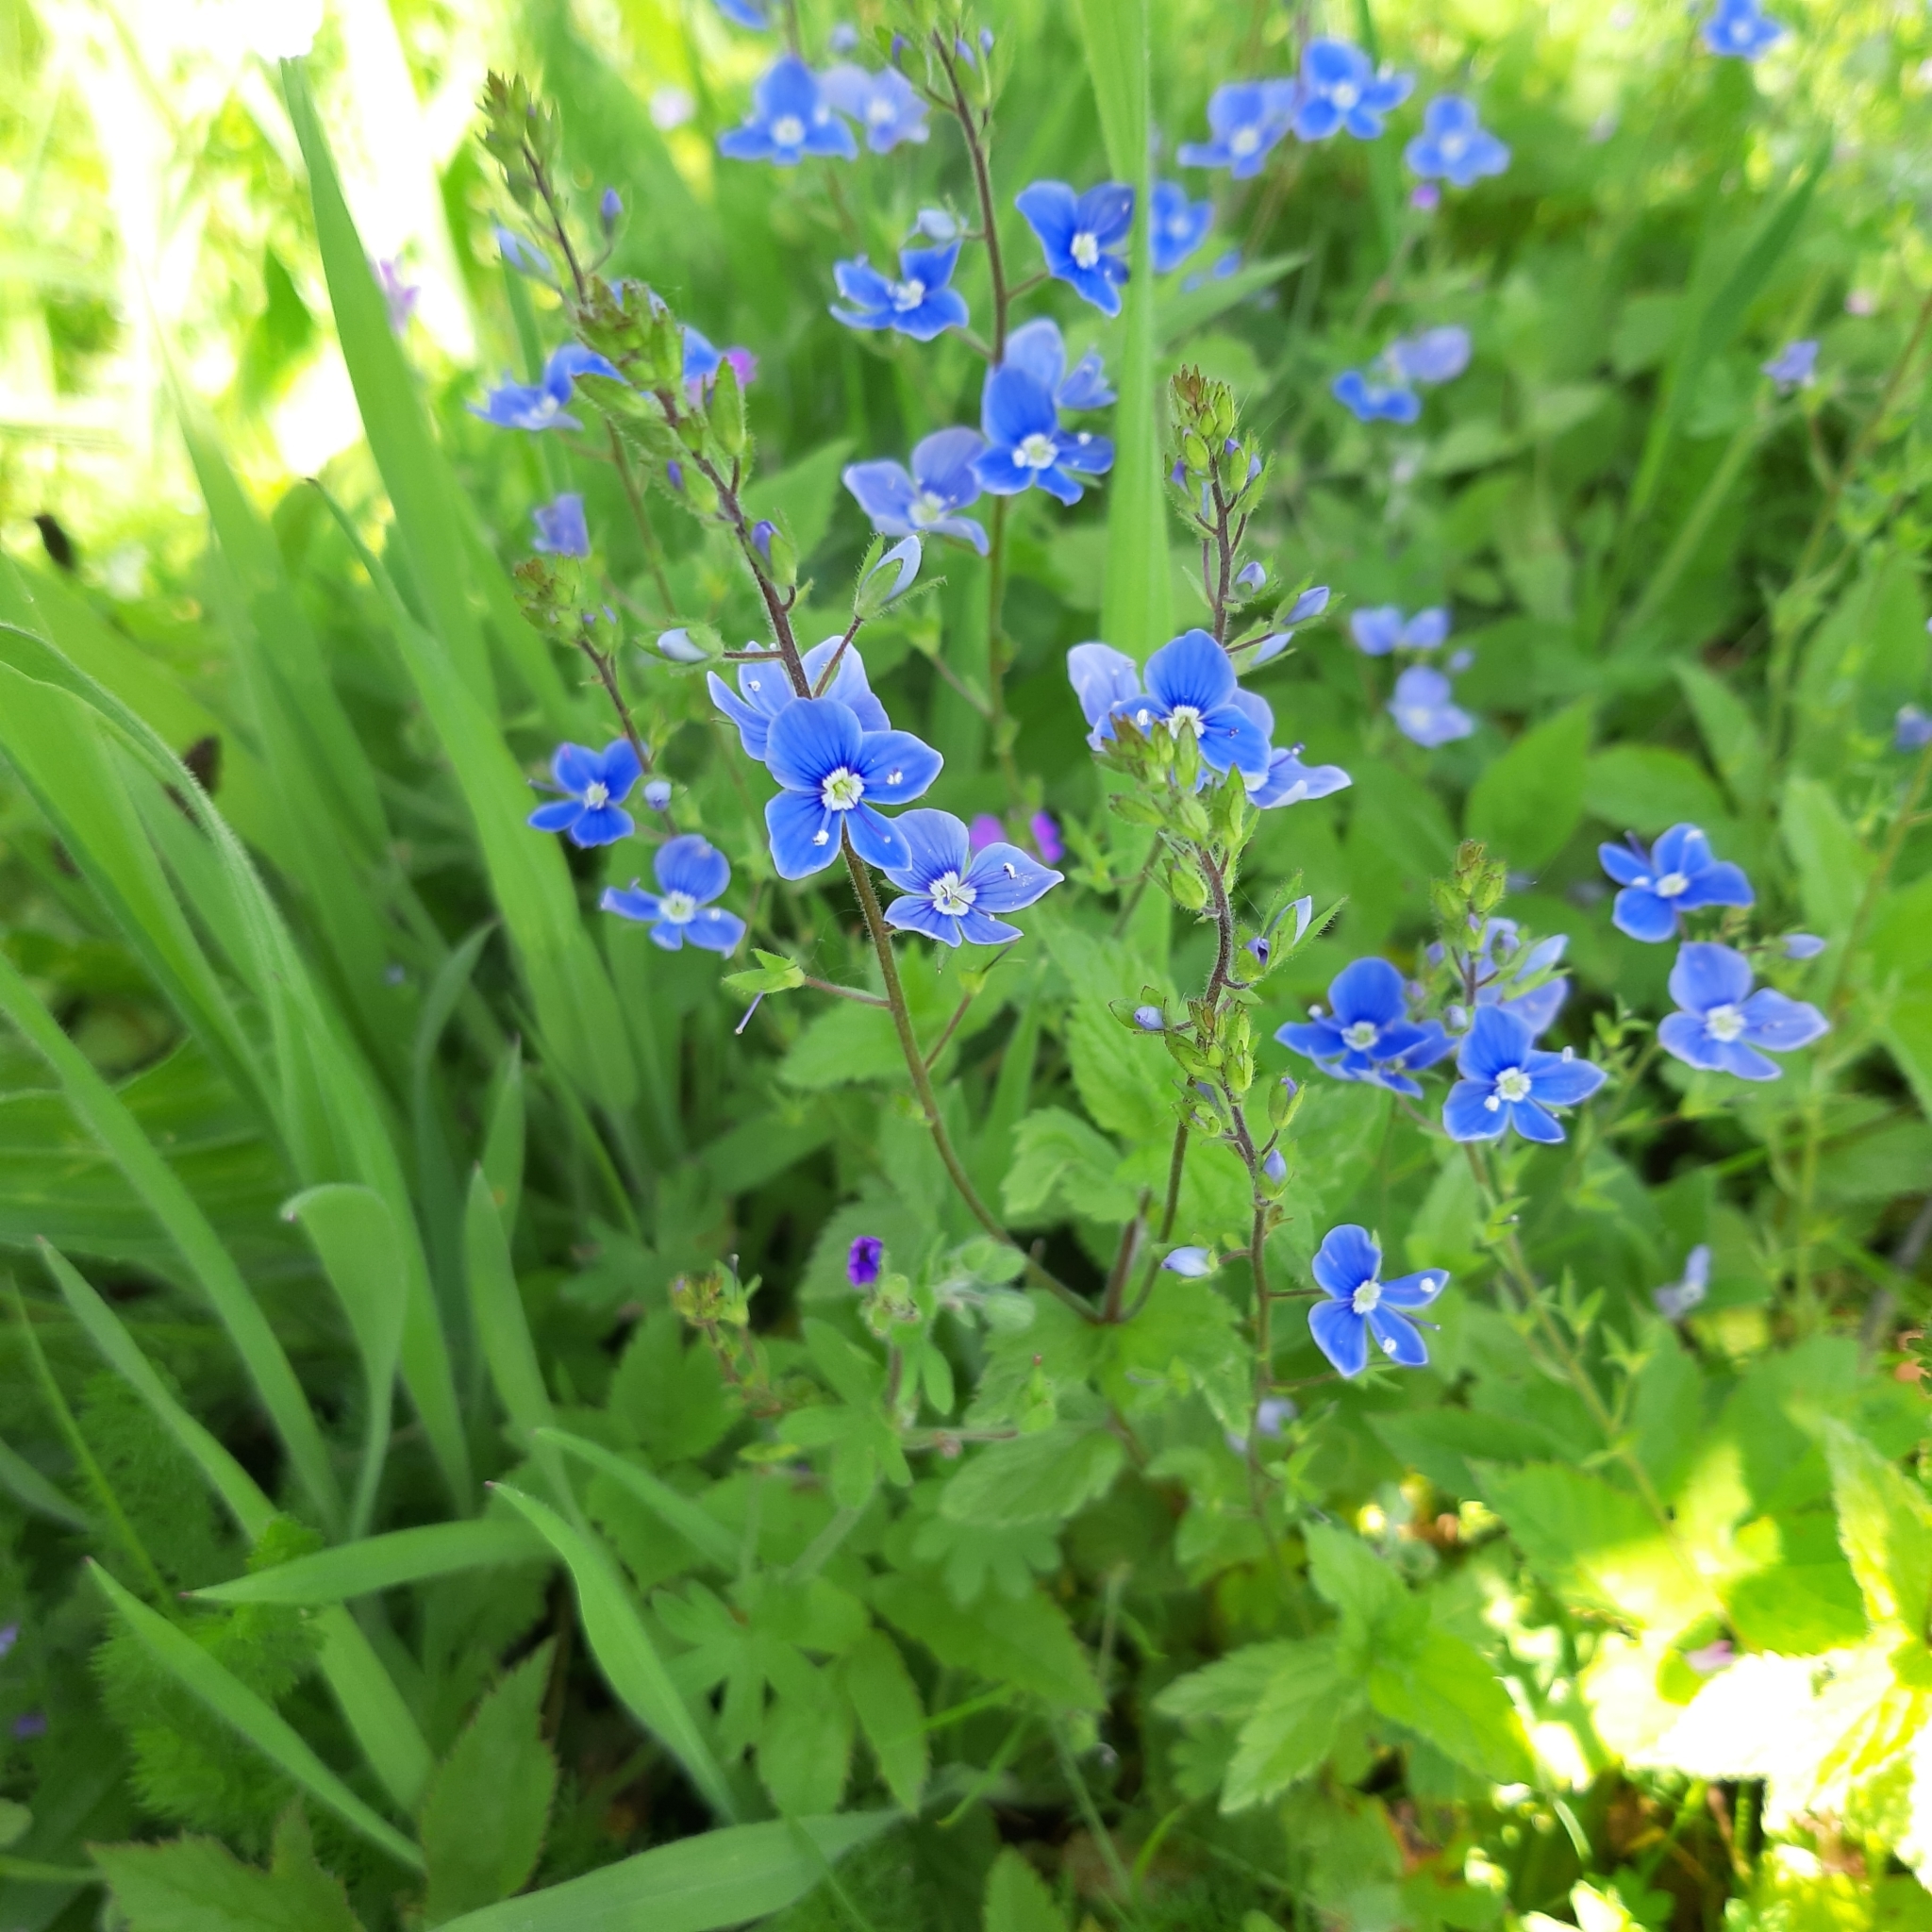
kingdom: Plantae
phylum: Tracheophyta
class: Magnoliopsida
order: Lamiales
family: Plantaginaceae
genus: Veronica
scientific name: Veronica chamaedrys
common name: Germander speedwell
